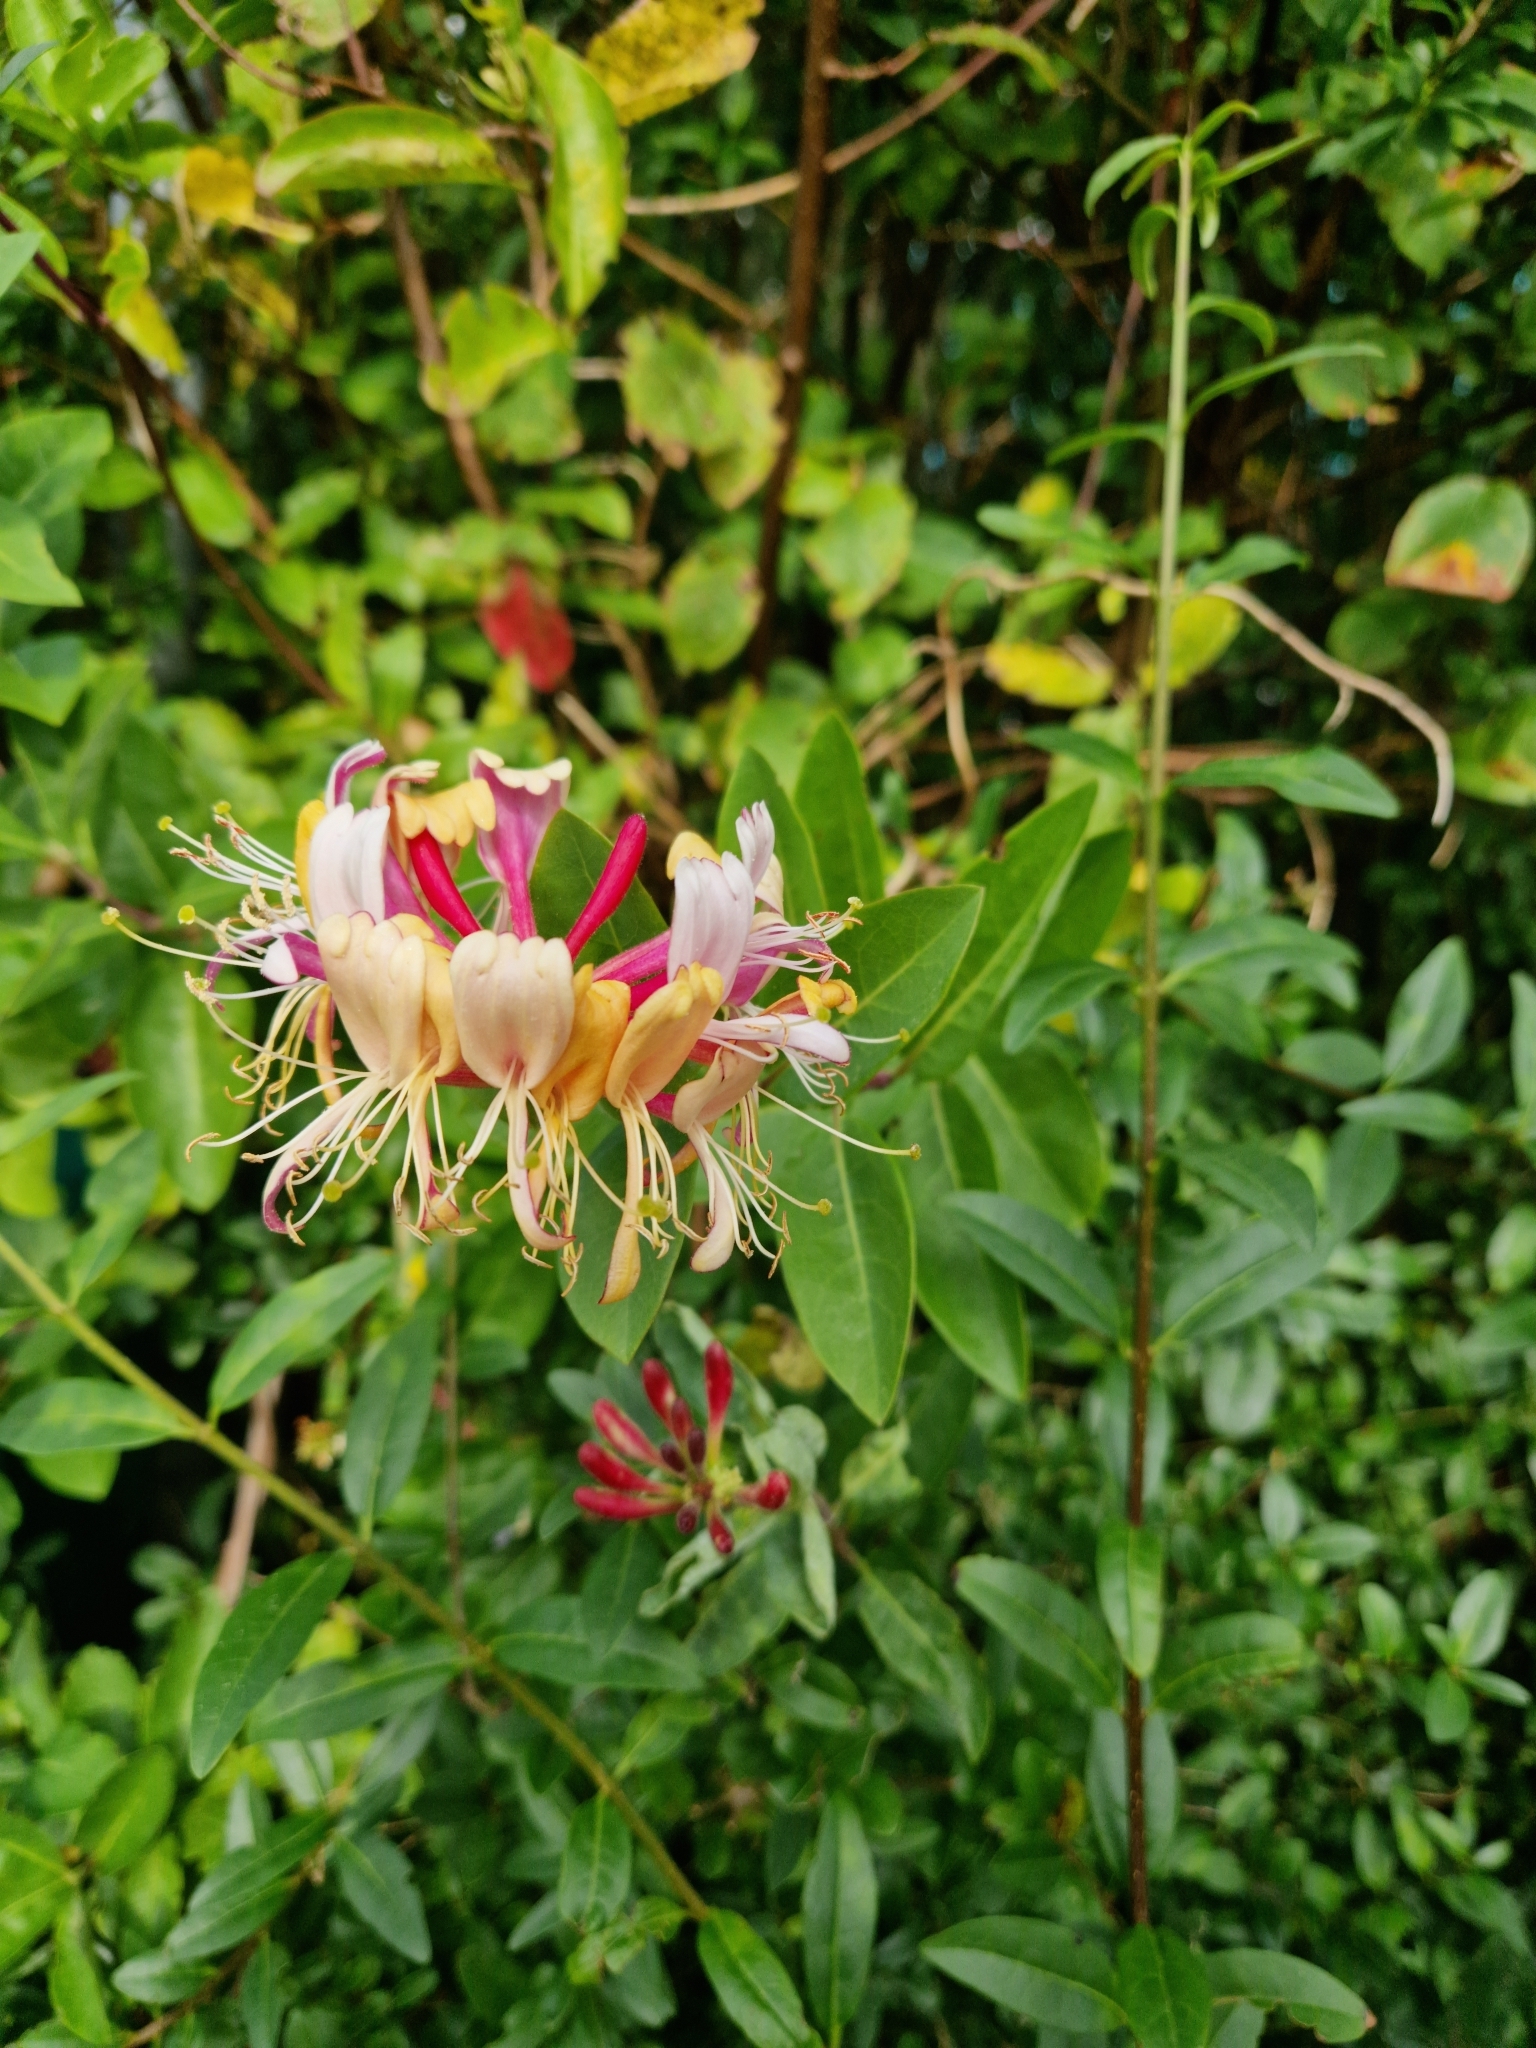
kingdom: Plantae
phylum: Tracheophyta
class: Magnoliopsida
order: Dipsacales
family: Caprifoliaceae
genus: Lonicera
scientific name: Lonicera periclymenum
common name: European honeysuckle
